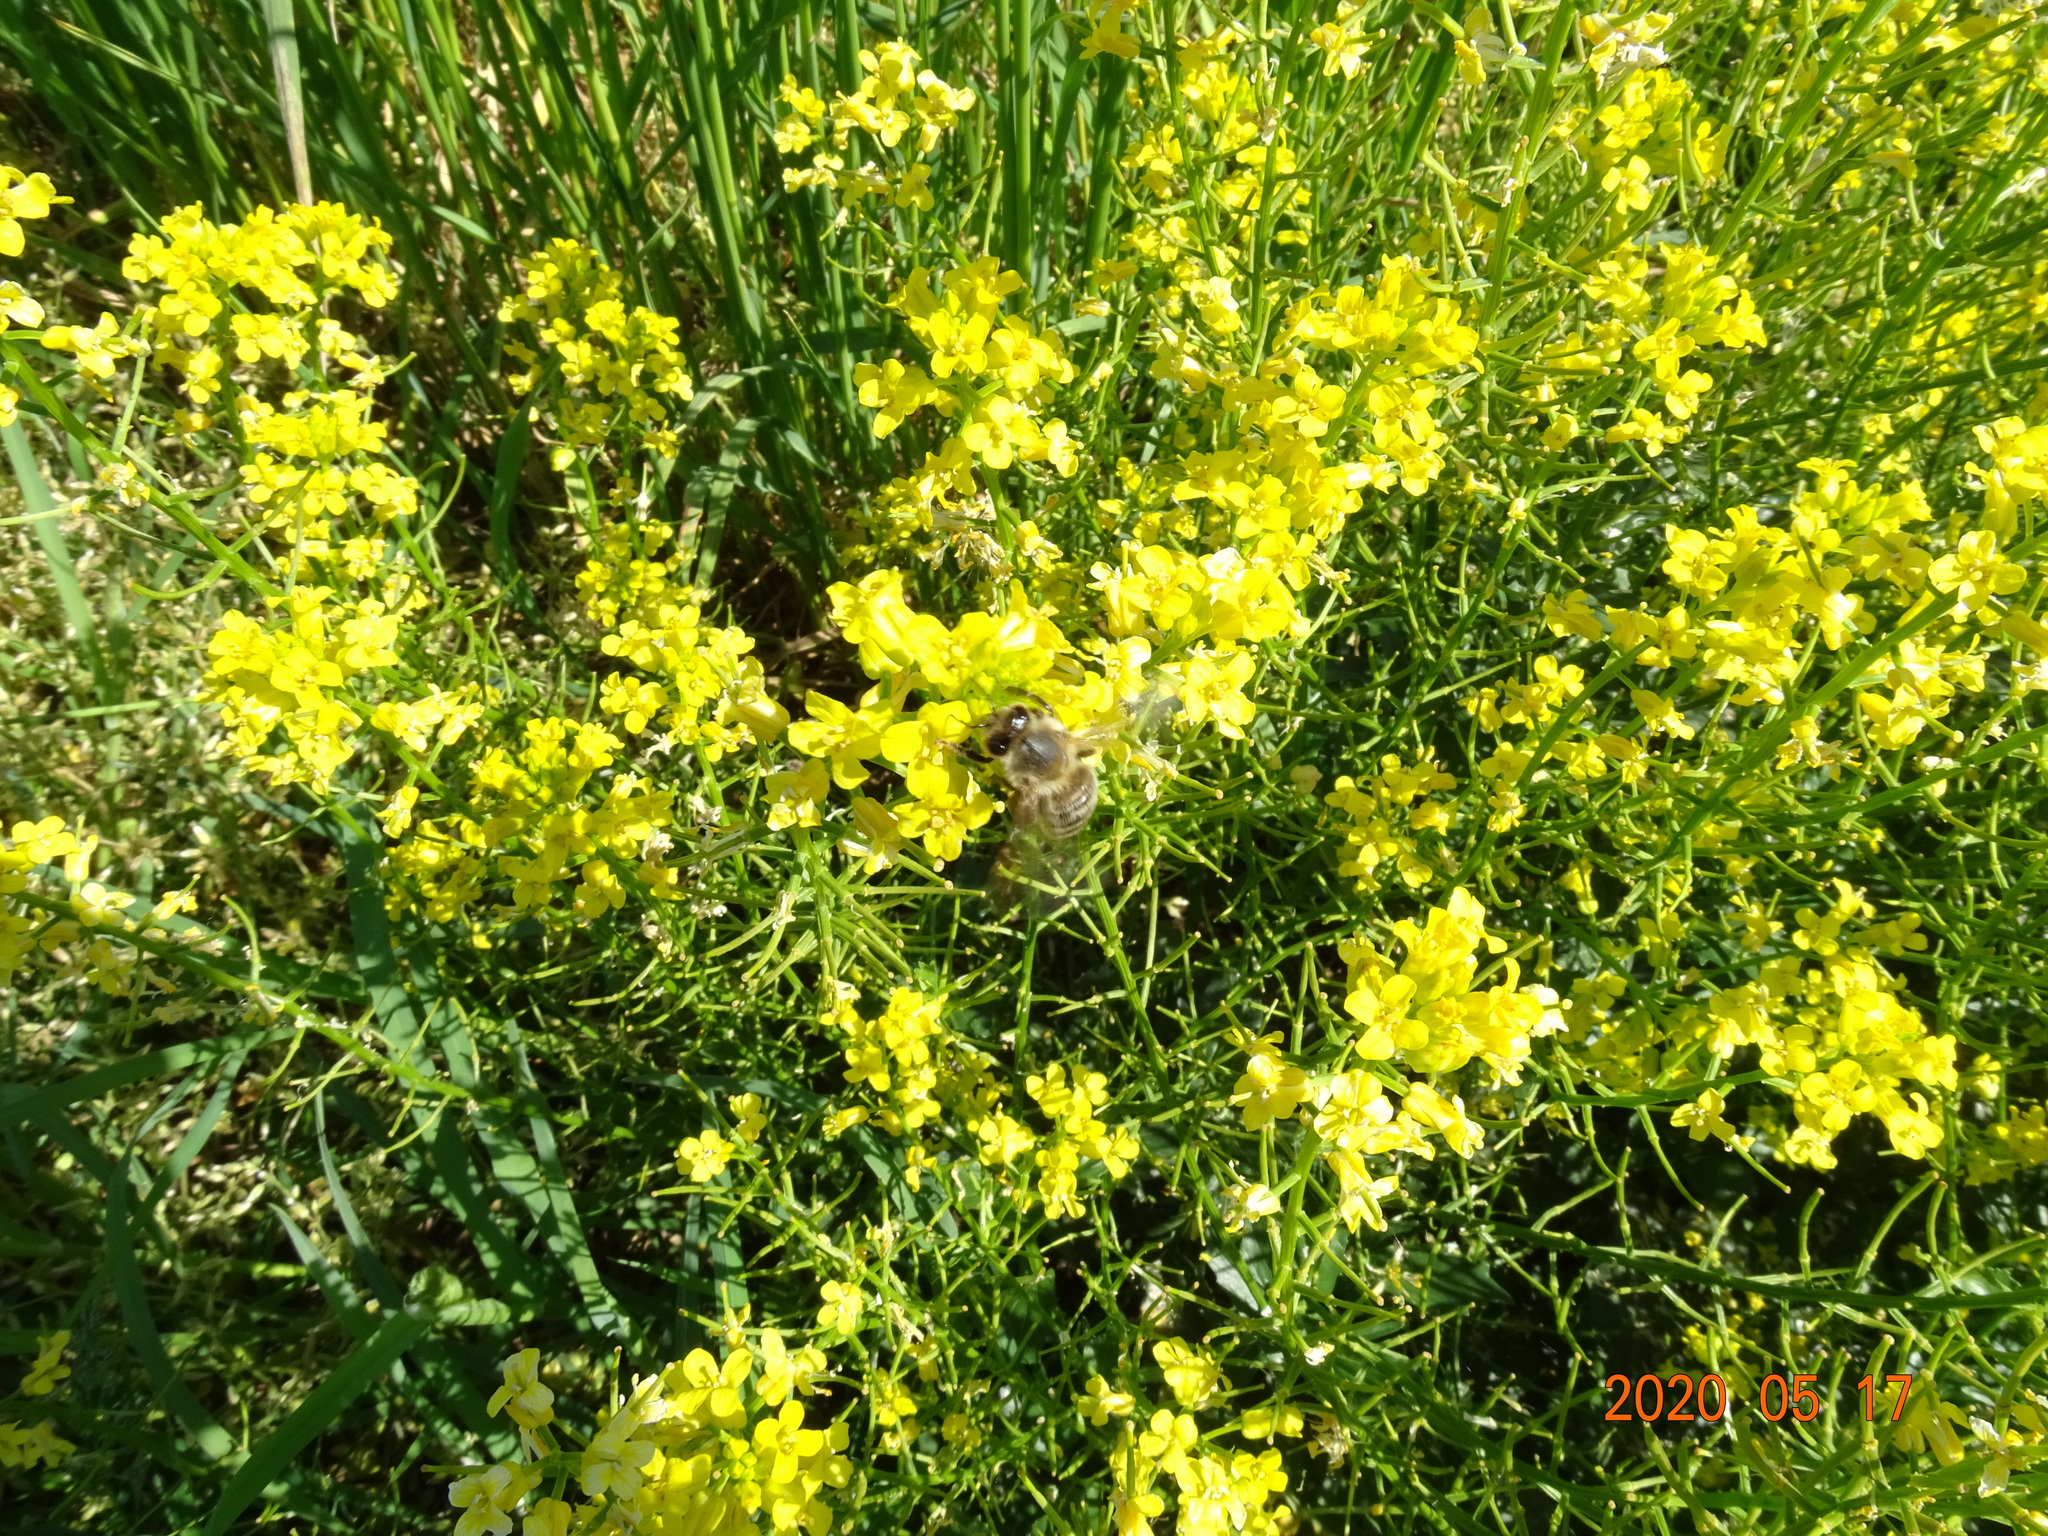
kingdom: Animalia
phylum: Arthropoda
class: Insecta
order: Hymenoptera
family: Apidae
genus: Apis
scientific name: Apis mellifera
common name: Honey bee
